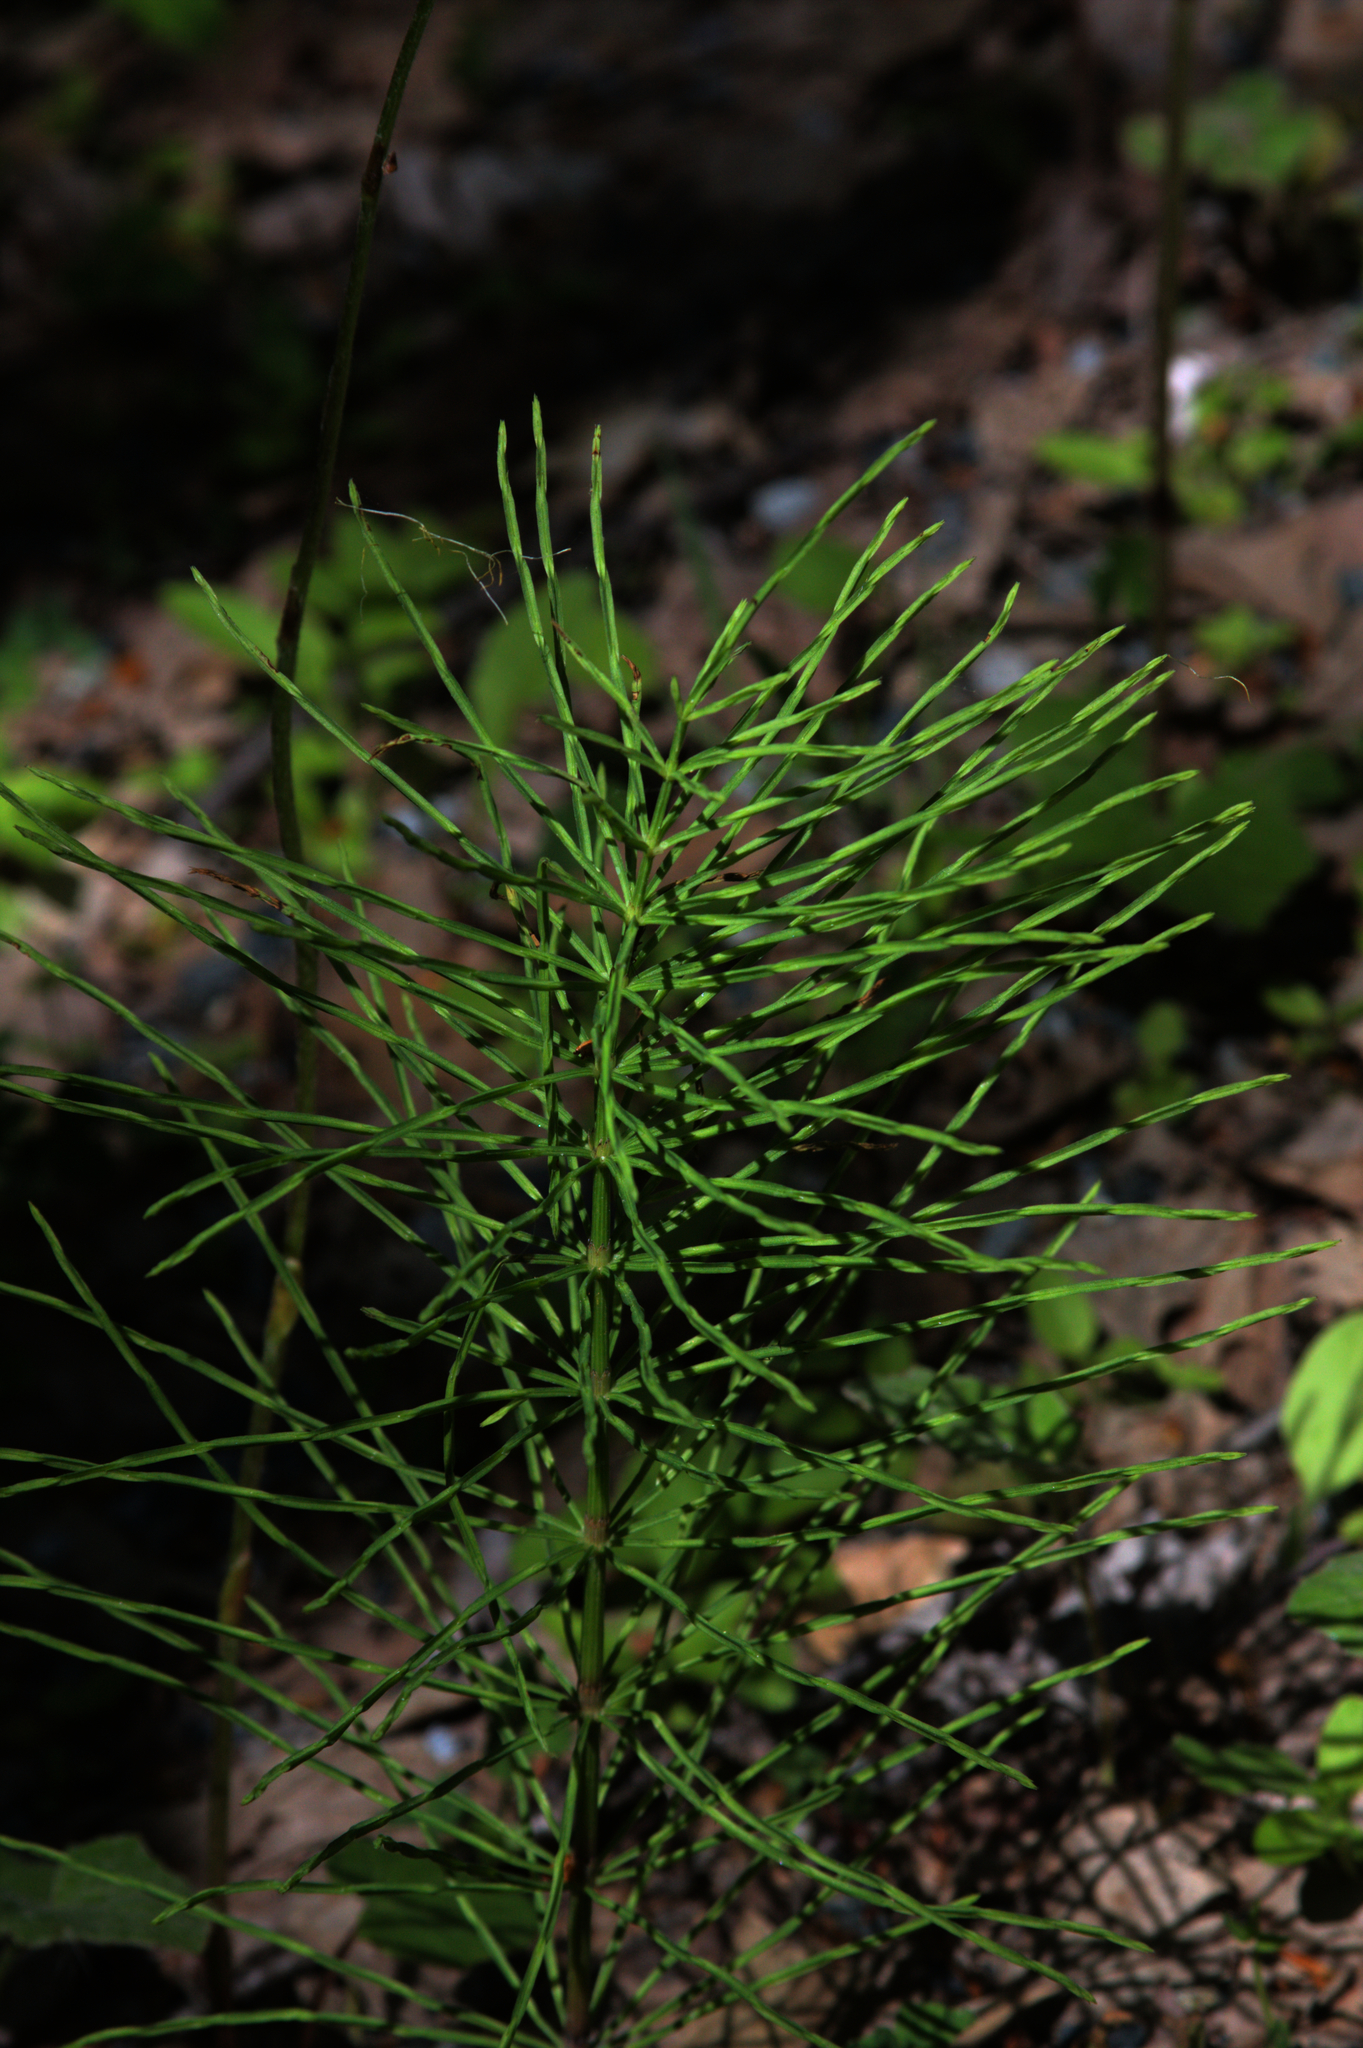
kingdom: Plantae
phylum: Tracheophyta
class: Polypodiopsida
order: Equisetales
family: Equisetaceae
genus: Equisetum
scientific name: Equisetum arvense
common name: Field horsetail
